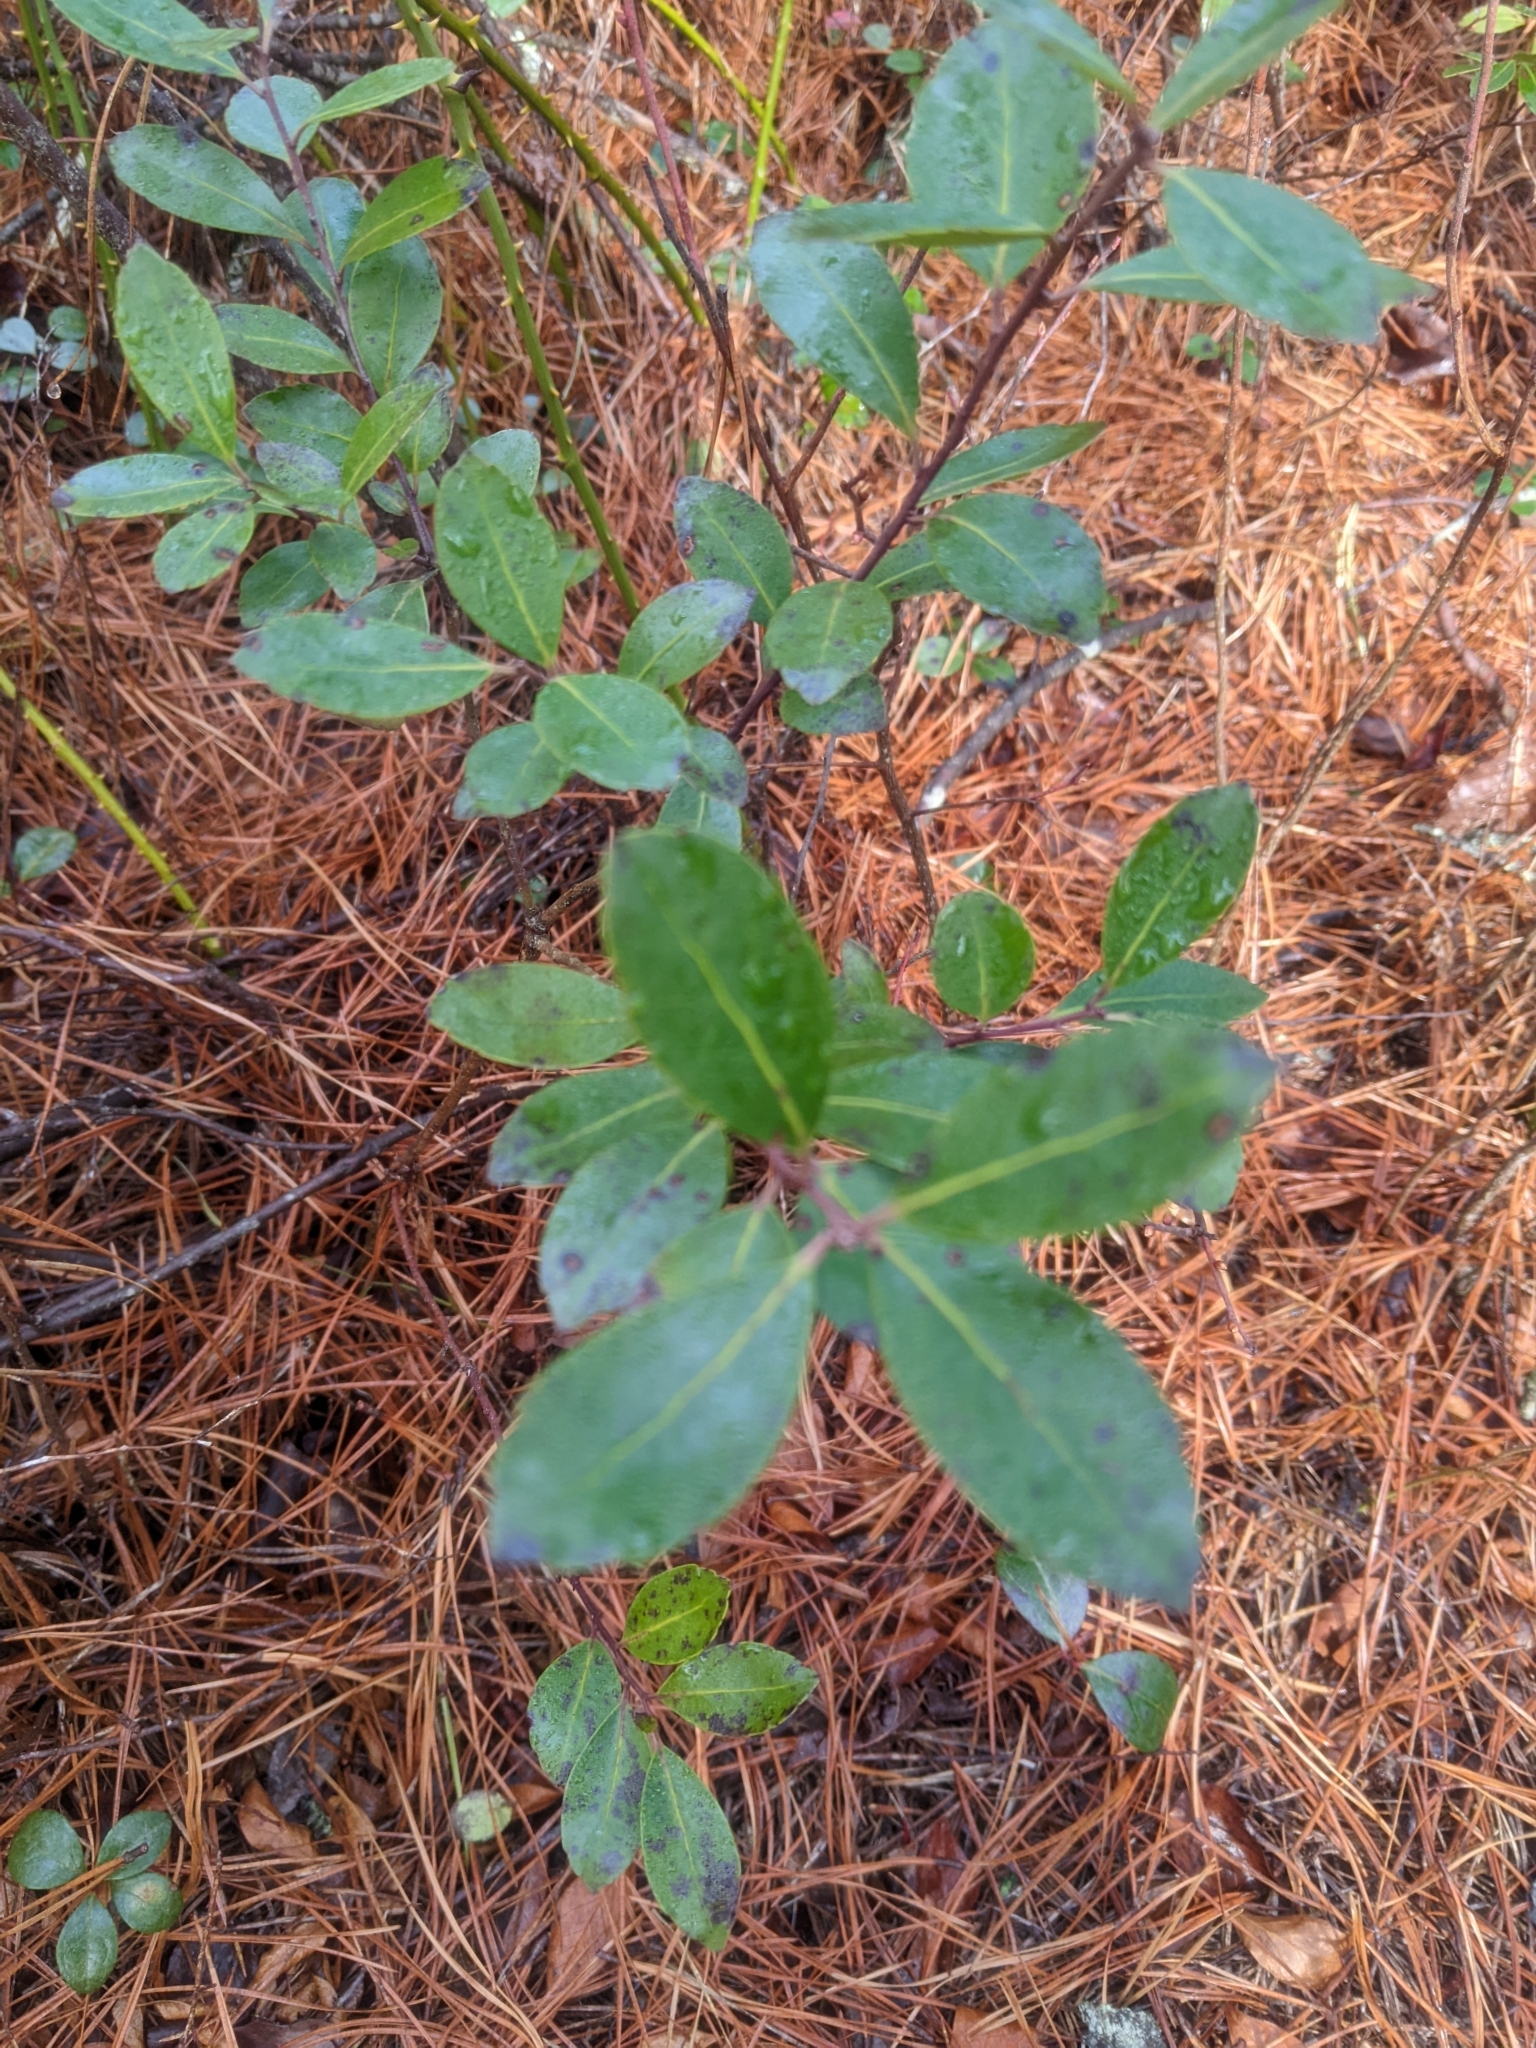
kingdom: Plantae
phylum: Tracheophyta
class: Magnoliopsida
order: Aquifoliales
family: Aquifoliaceae
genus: Ilex
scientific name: Ilex glabra
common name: Bitter gallberry
